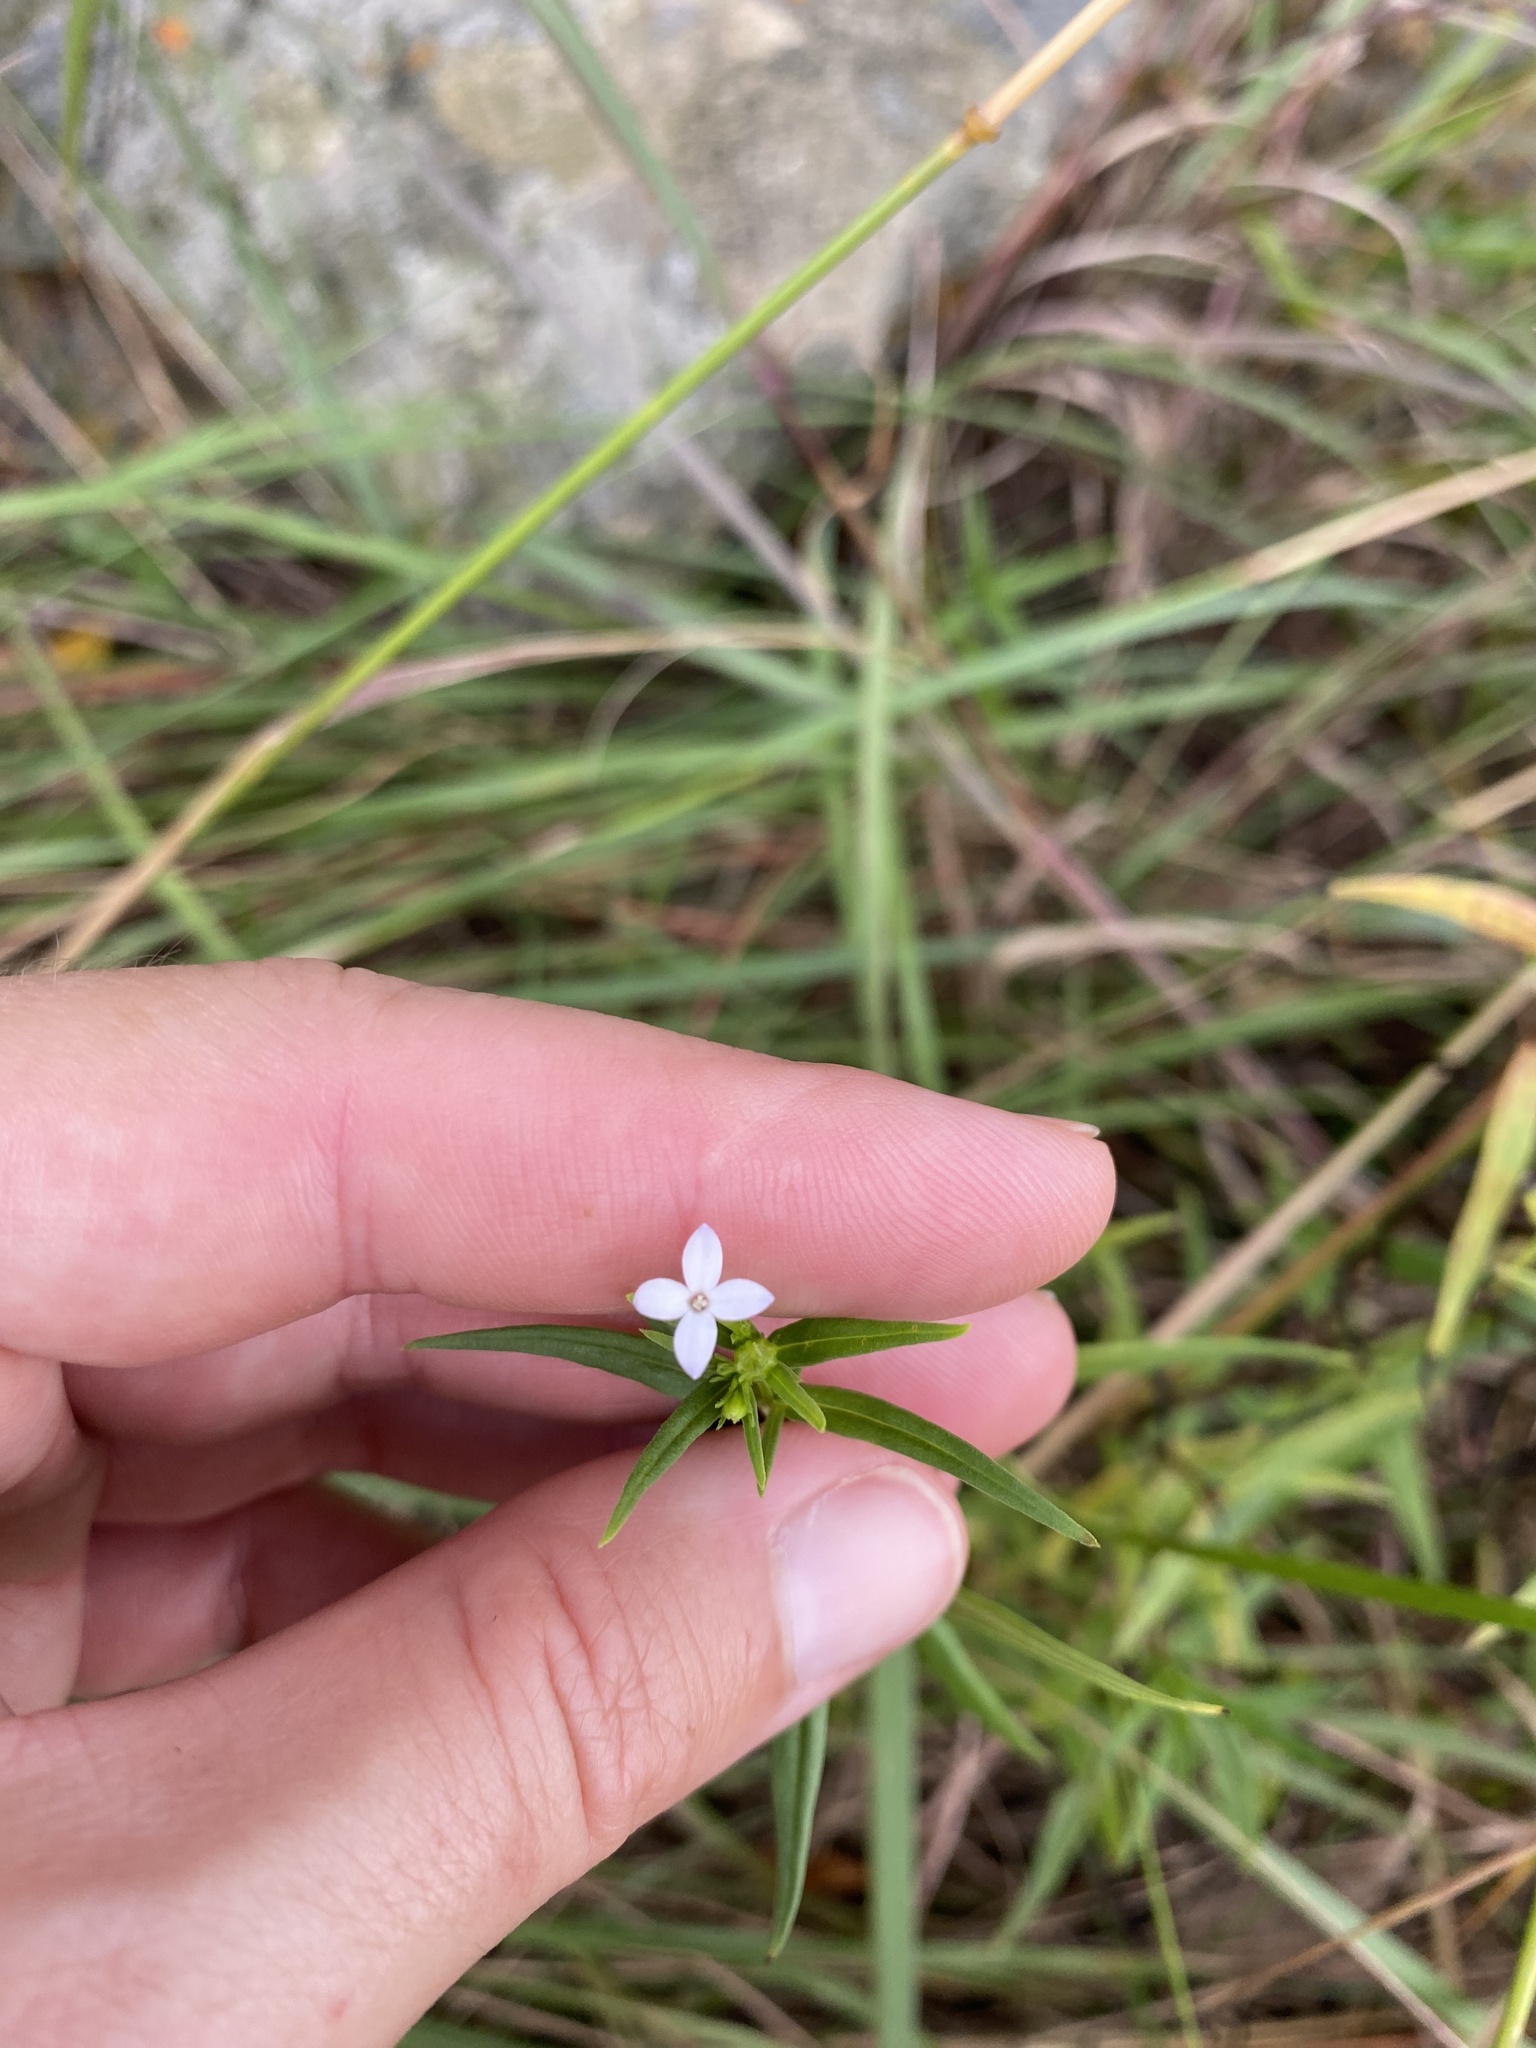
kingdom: Plantae
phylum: Tracheophyta
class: Magnoliopsida
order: Gentianales
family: Rubiaceae
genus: Conostomium
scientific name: Conostomium natalense
